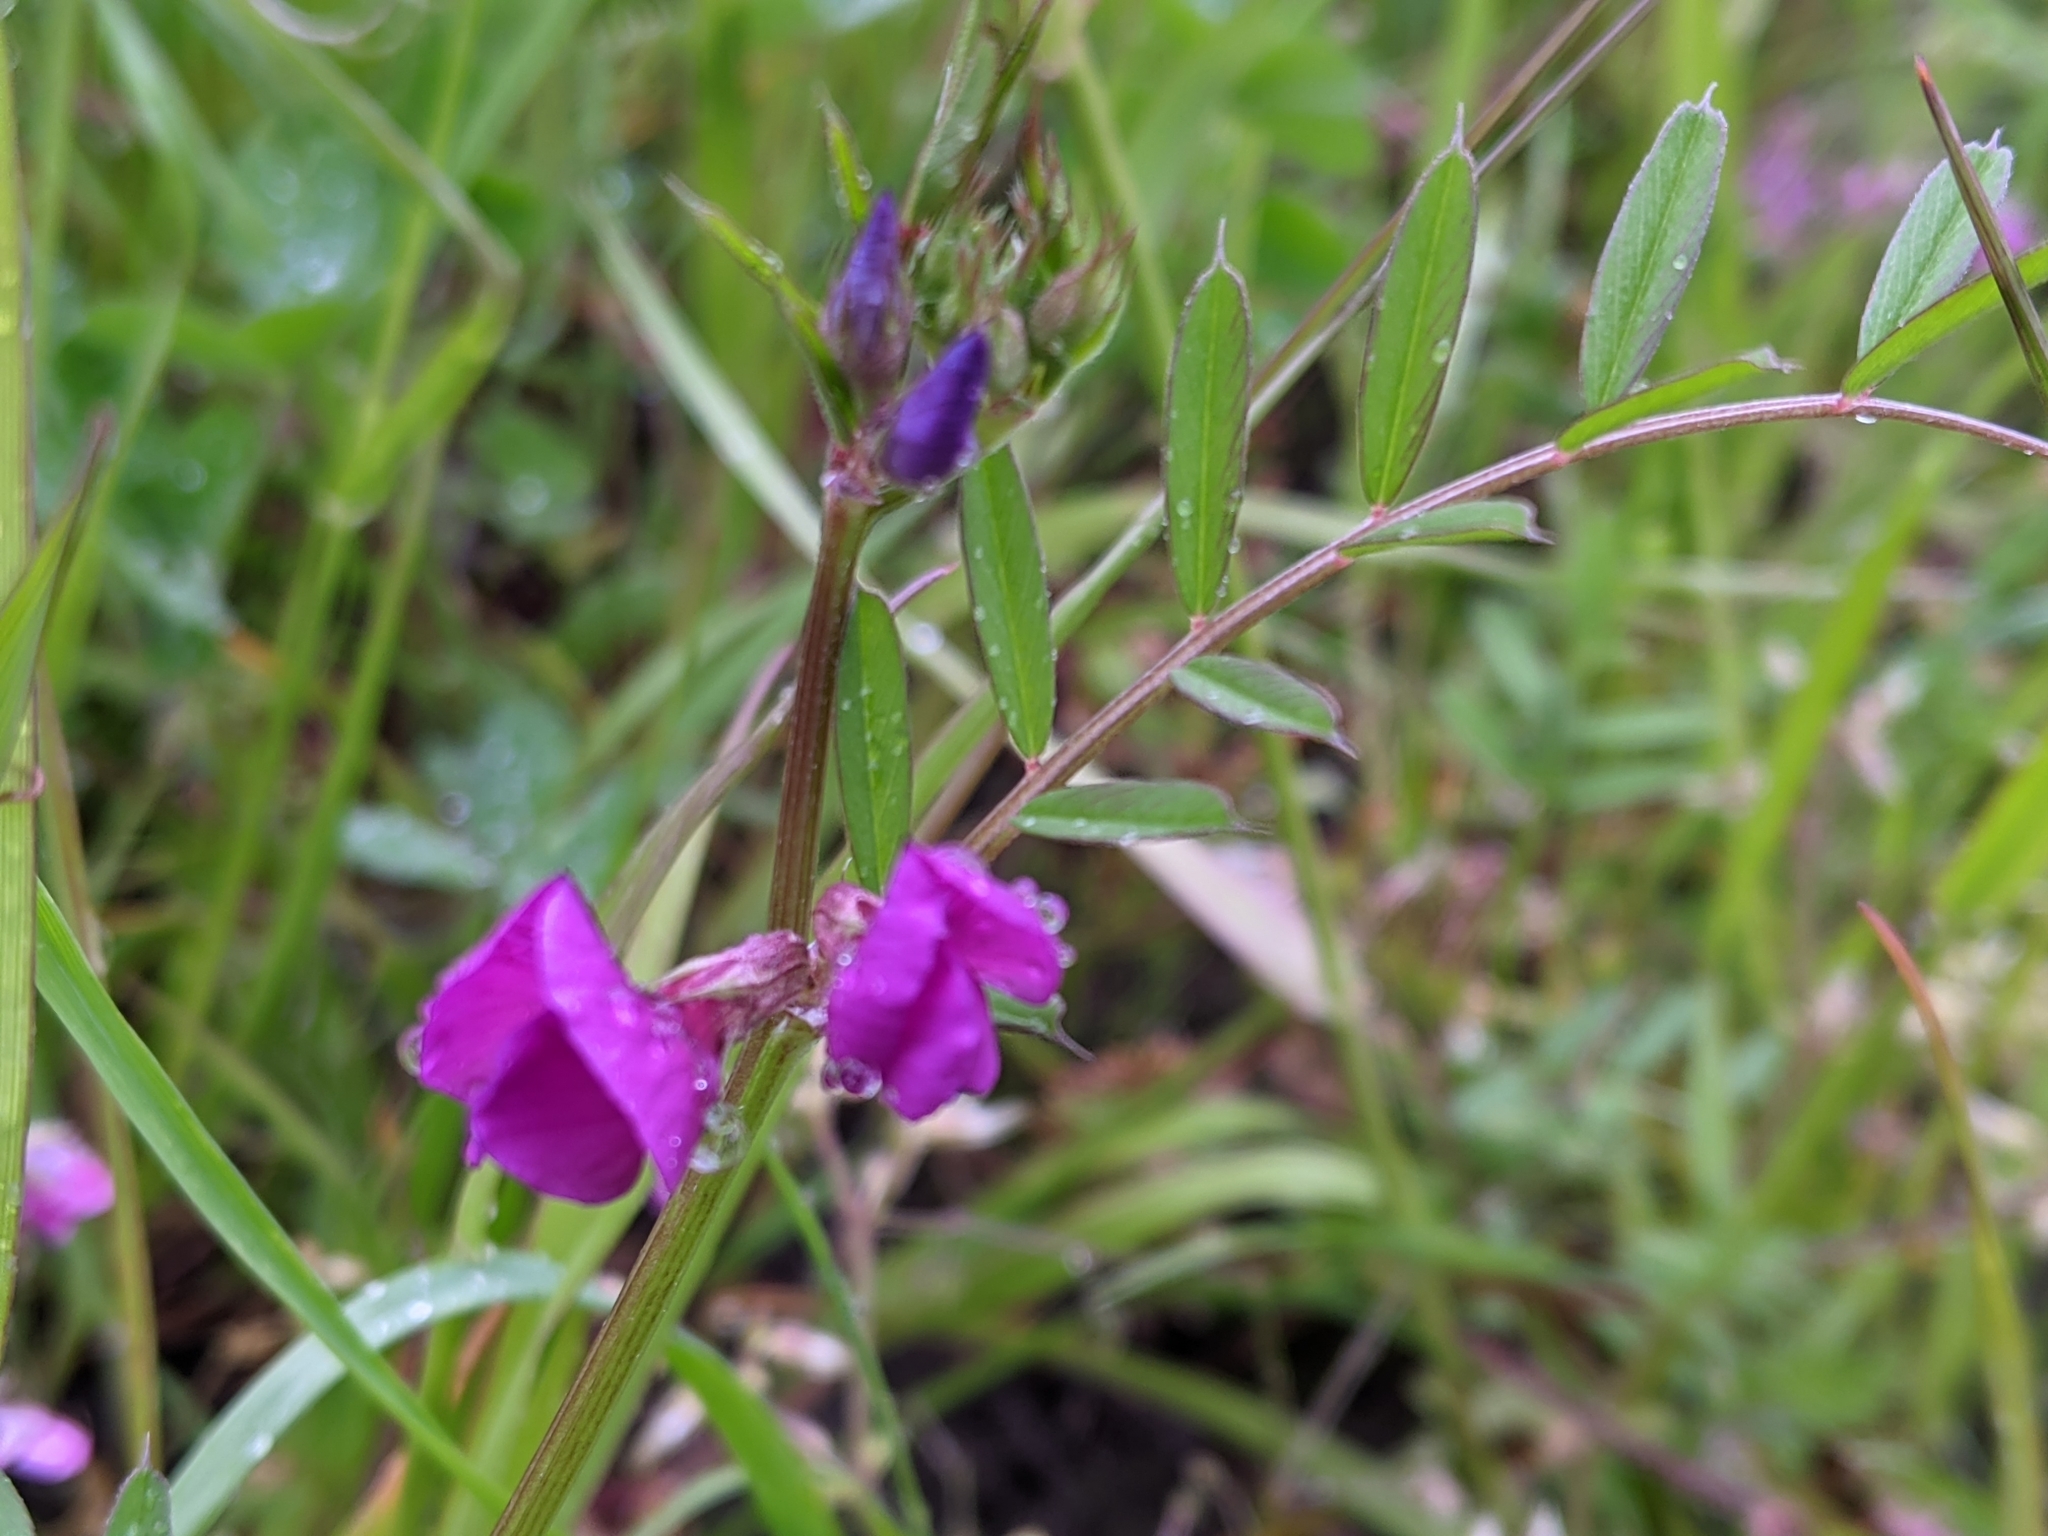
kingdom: Plantae
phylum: Tracheophyta
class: Magnoliopsida
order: Fabales
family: Fabaceae
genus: Vicia
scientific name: Vicia sativa
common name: Garden vetch
